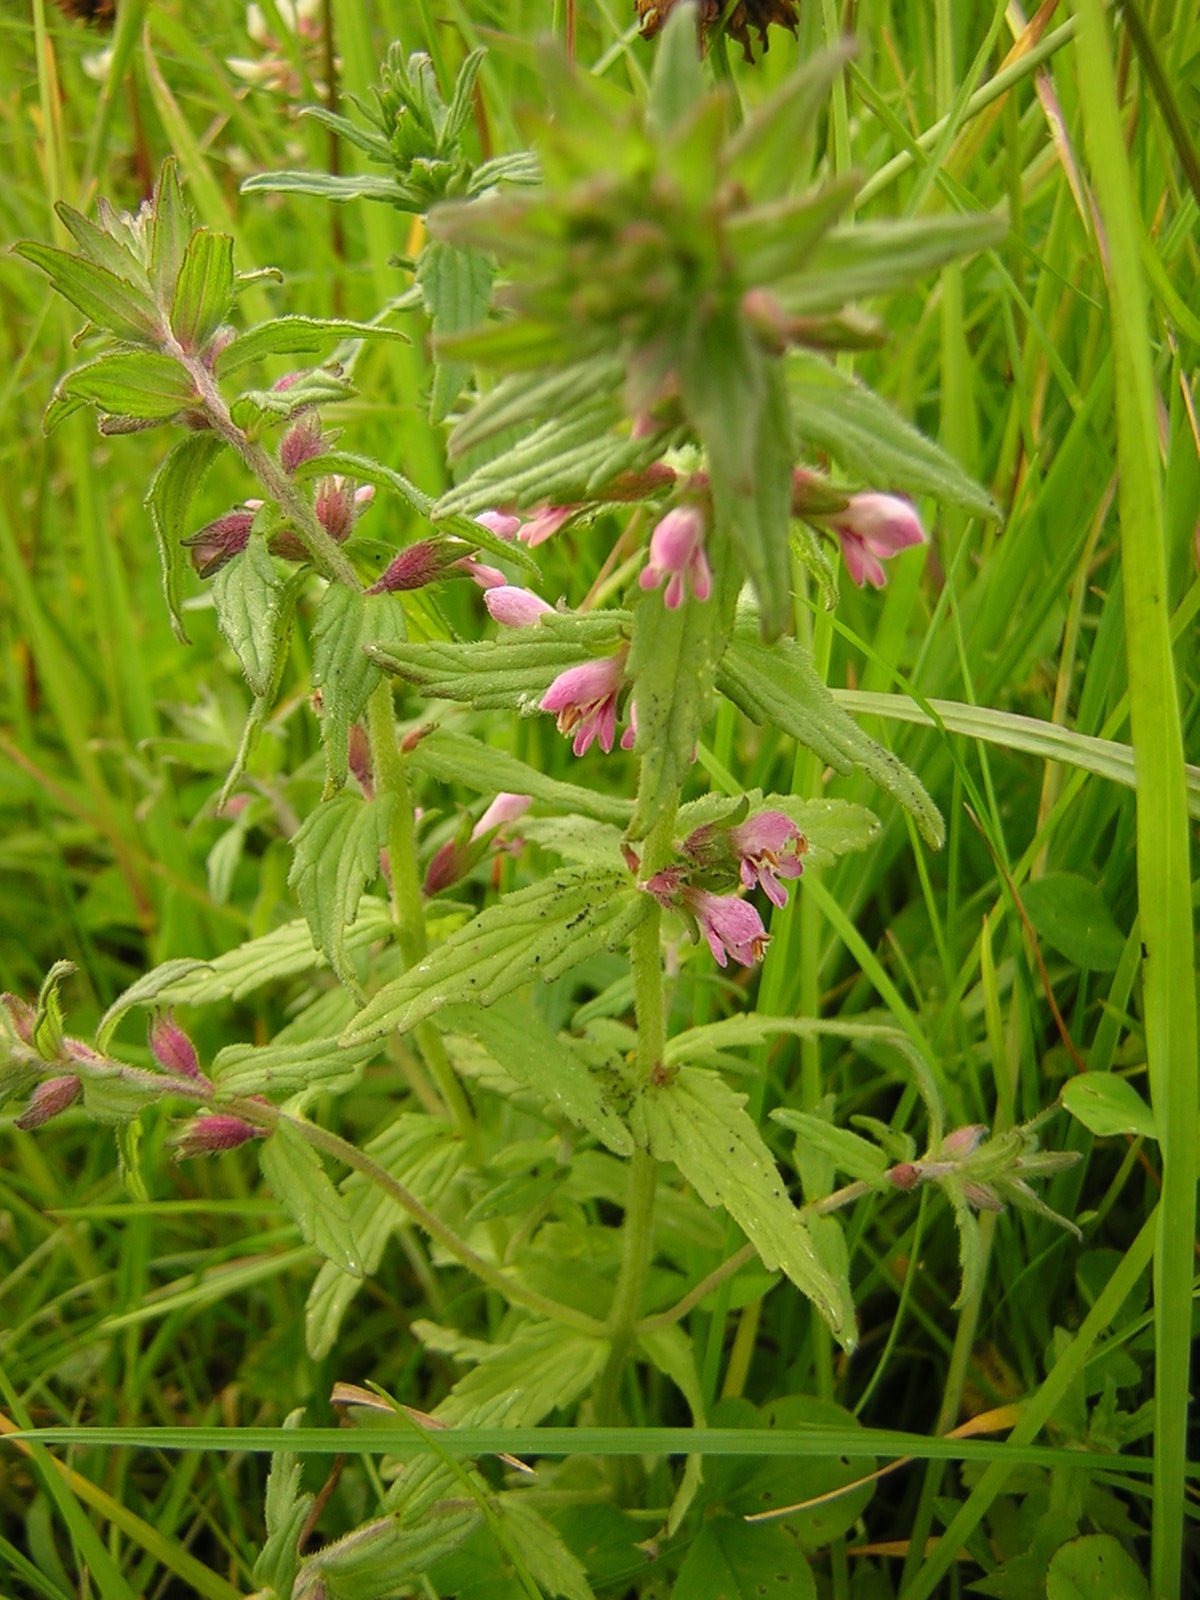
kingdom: Plantae
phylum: Tracheophyta
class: Magnoliopsida
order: Lamiales
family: Orobanchaceae
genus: Odontites
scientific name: Odontites vernus
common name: Red bartsia
